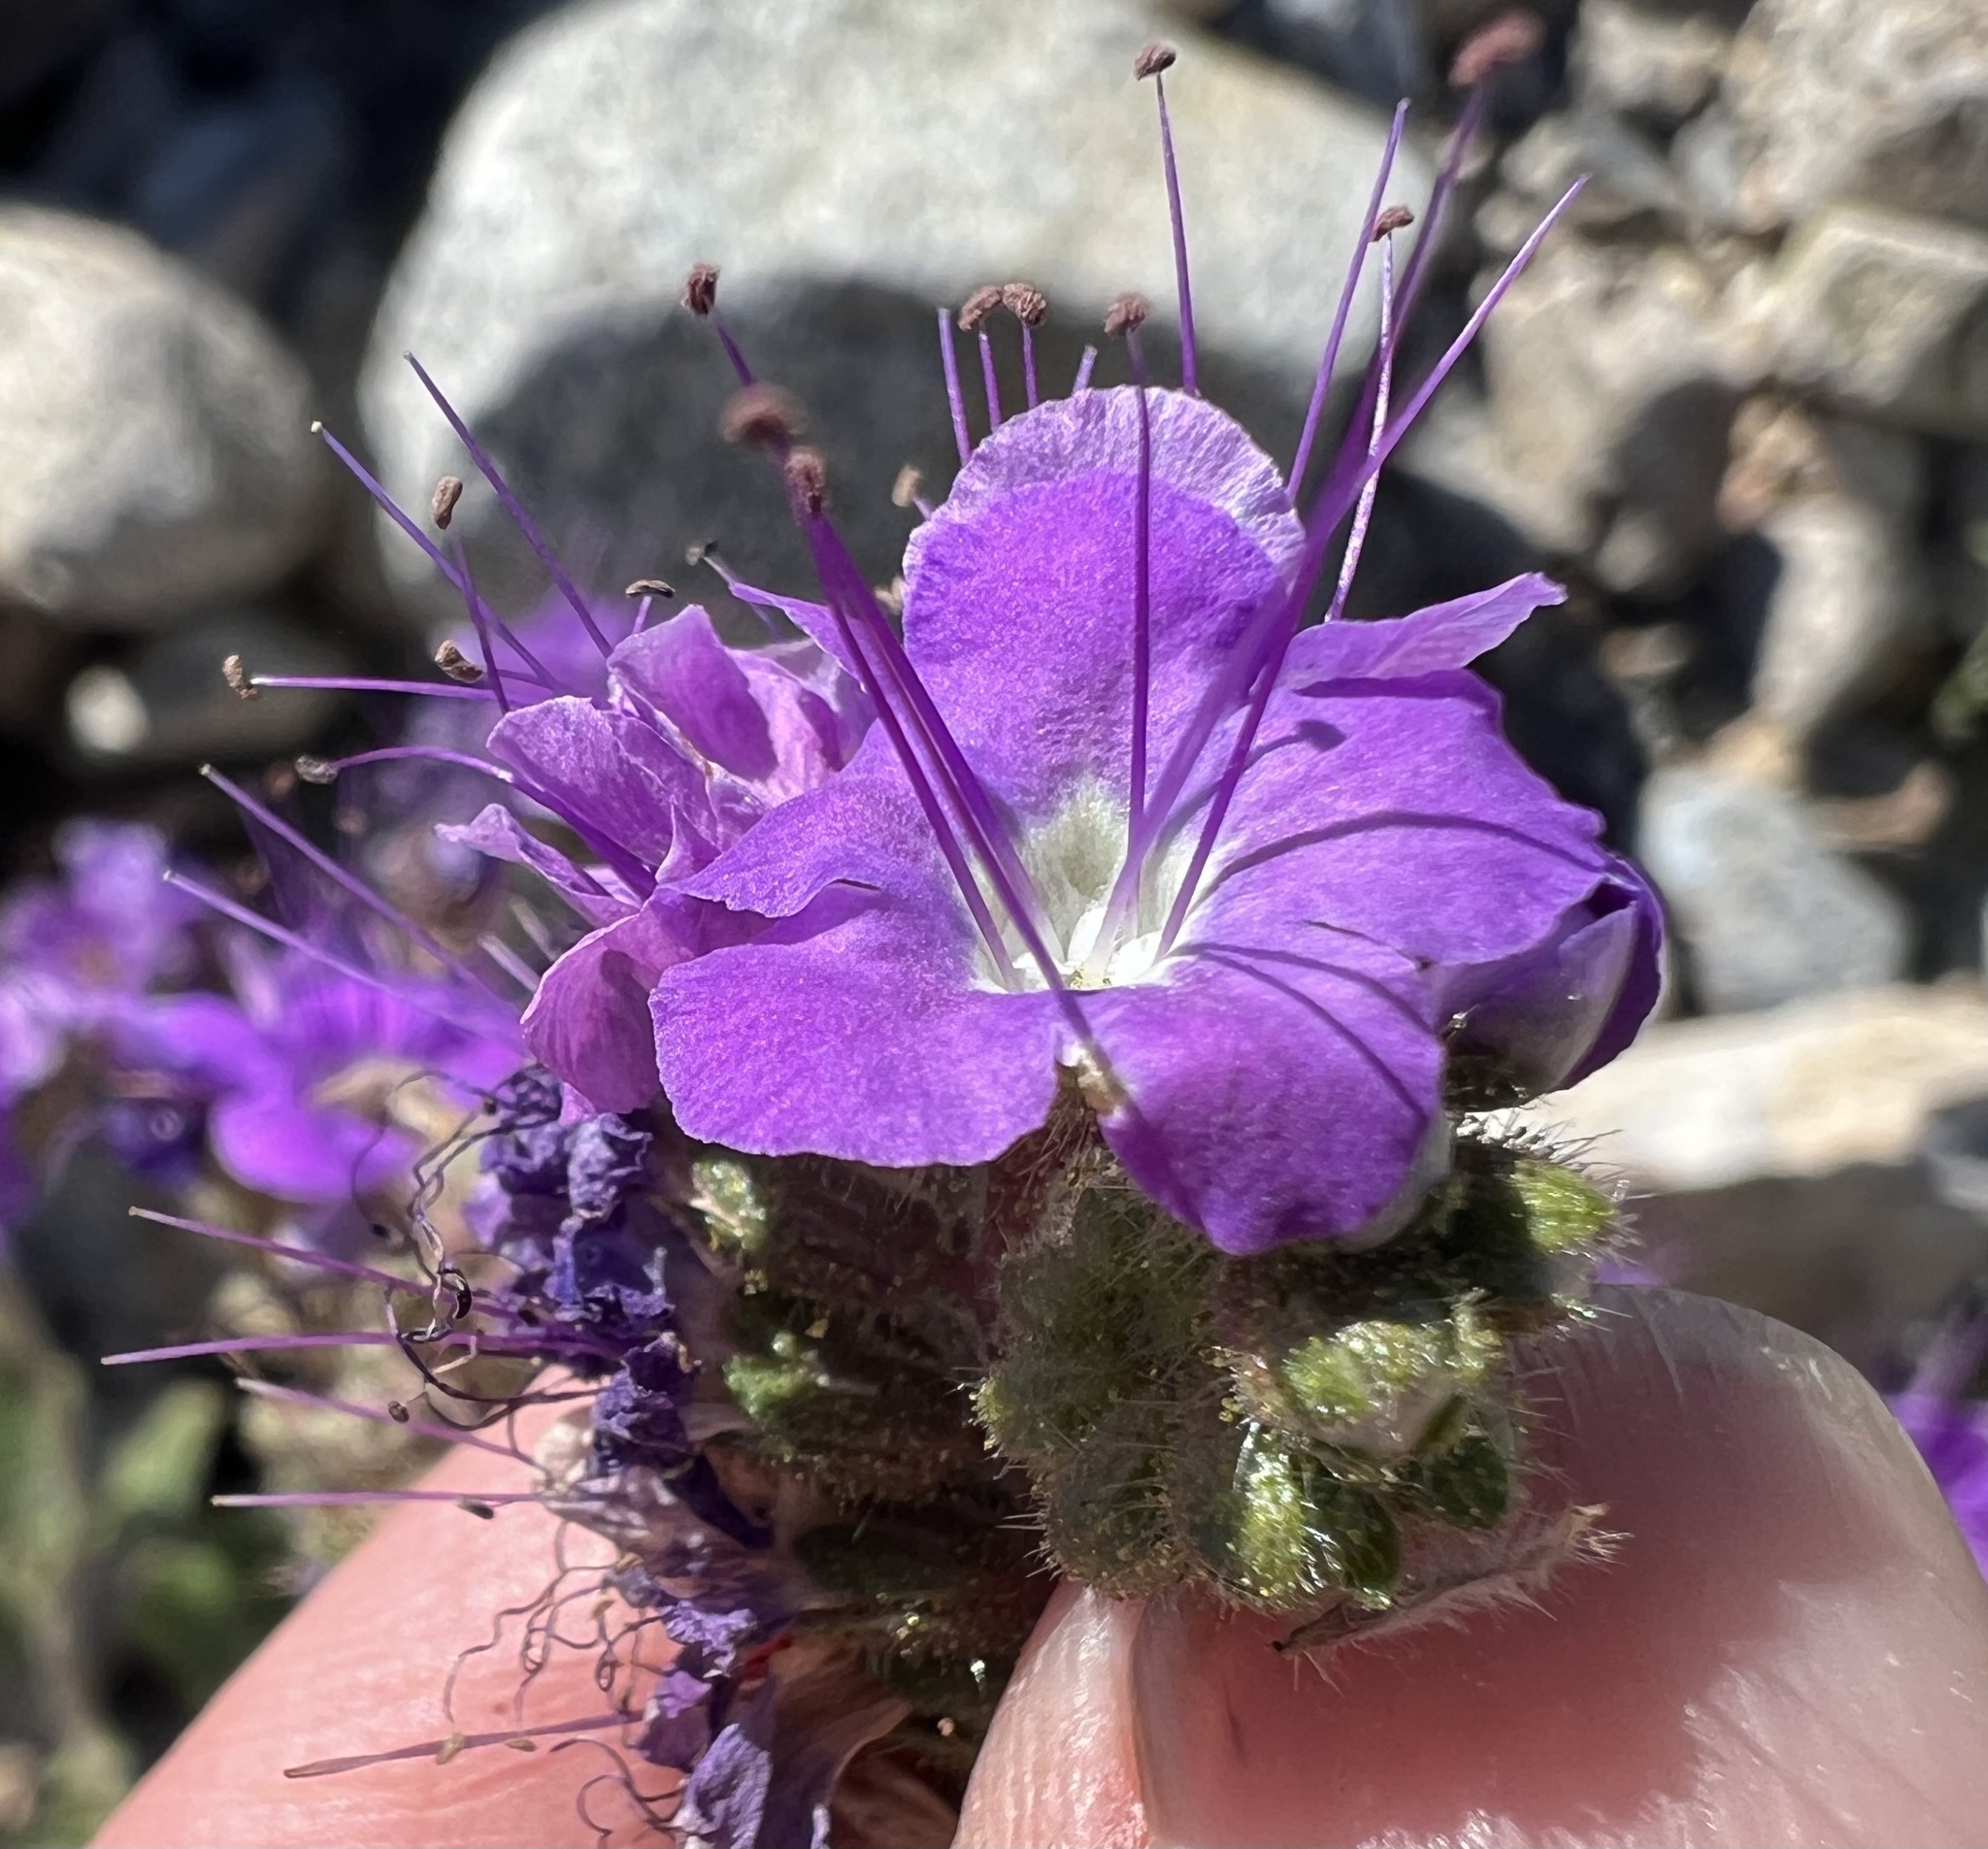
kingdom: Plantae
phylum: Tracheophyta
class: Magnoliopsida
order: Boraginales
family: Hydrophyllaceae
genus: Phacelia
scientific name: Phacelia crenulata
